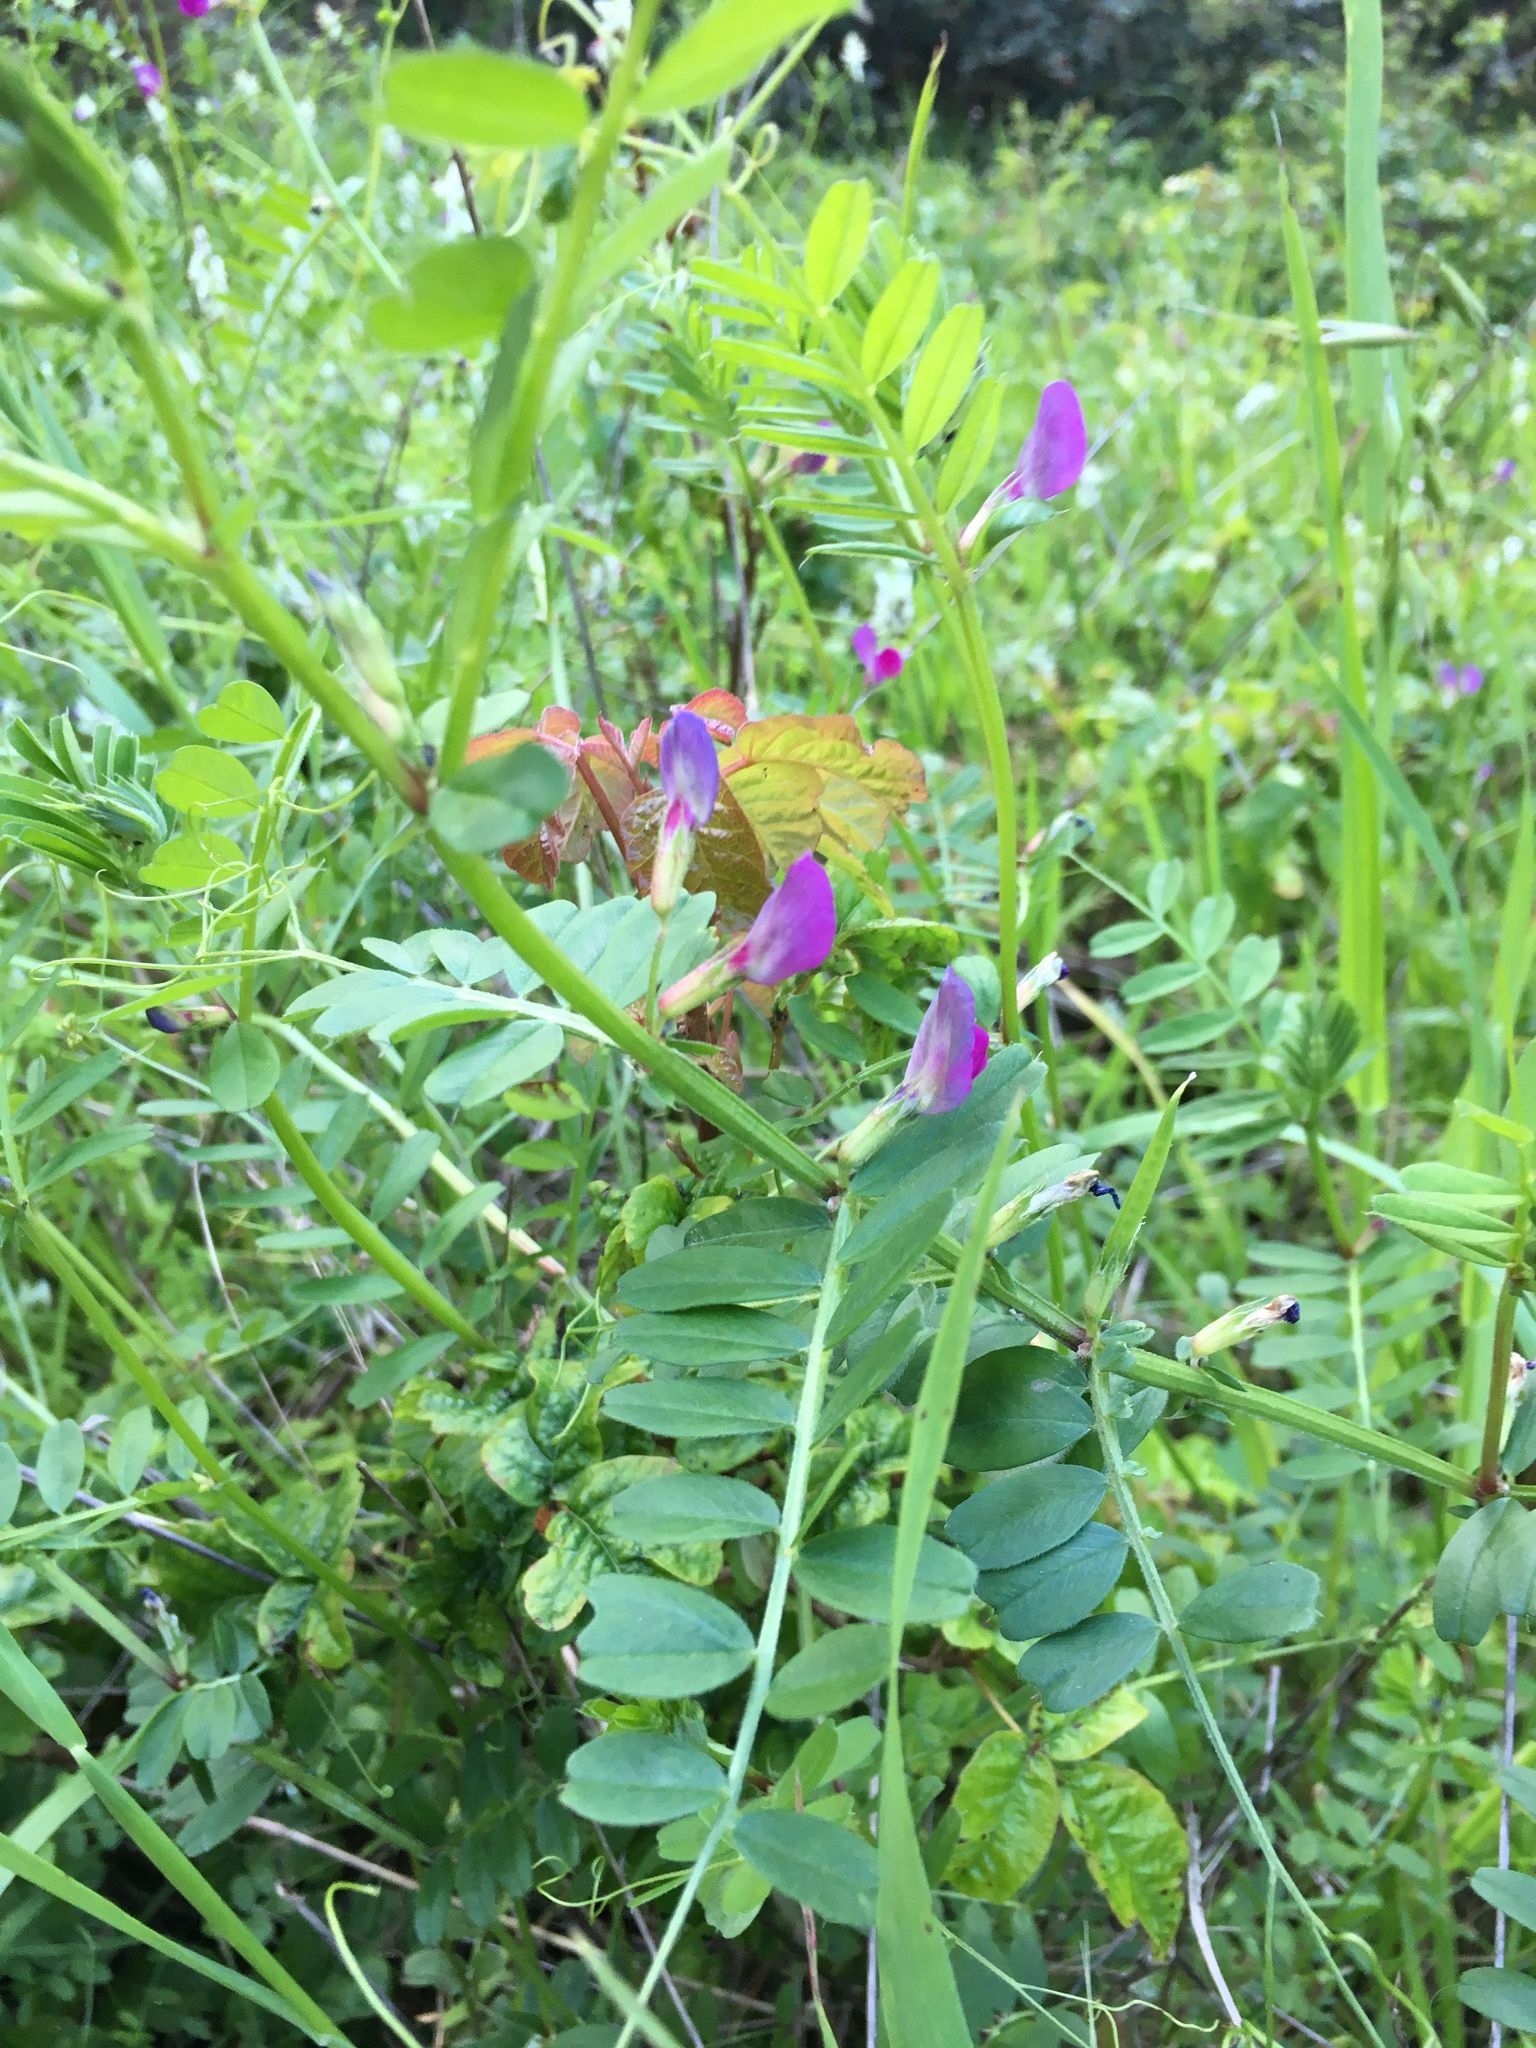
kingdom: Plantae
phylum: Tracheophyta
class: Magnoliopsida
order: Fabales
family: Fabaceae
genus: Vicia
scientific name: Vicia sativa
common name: Garden vetch
